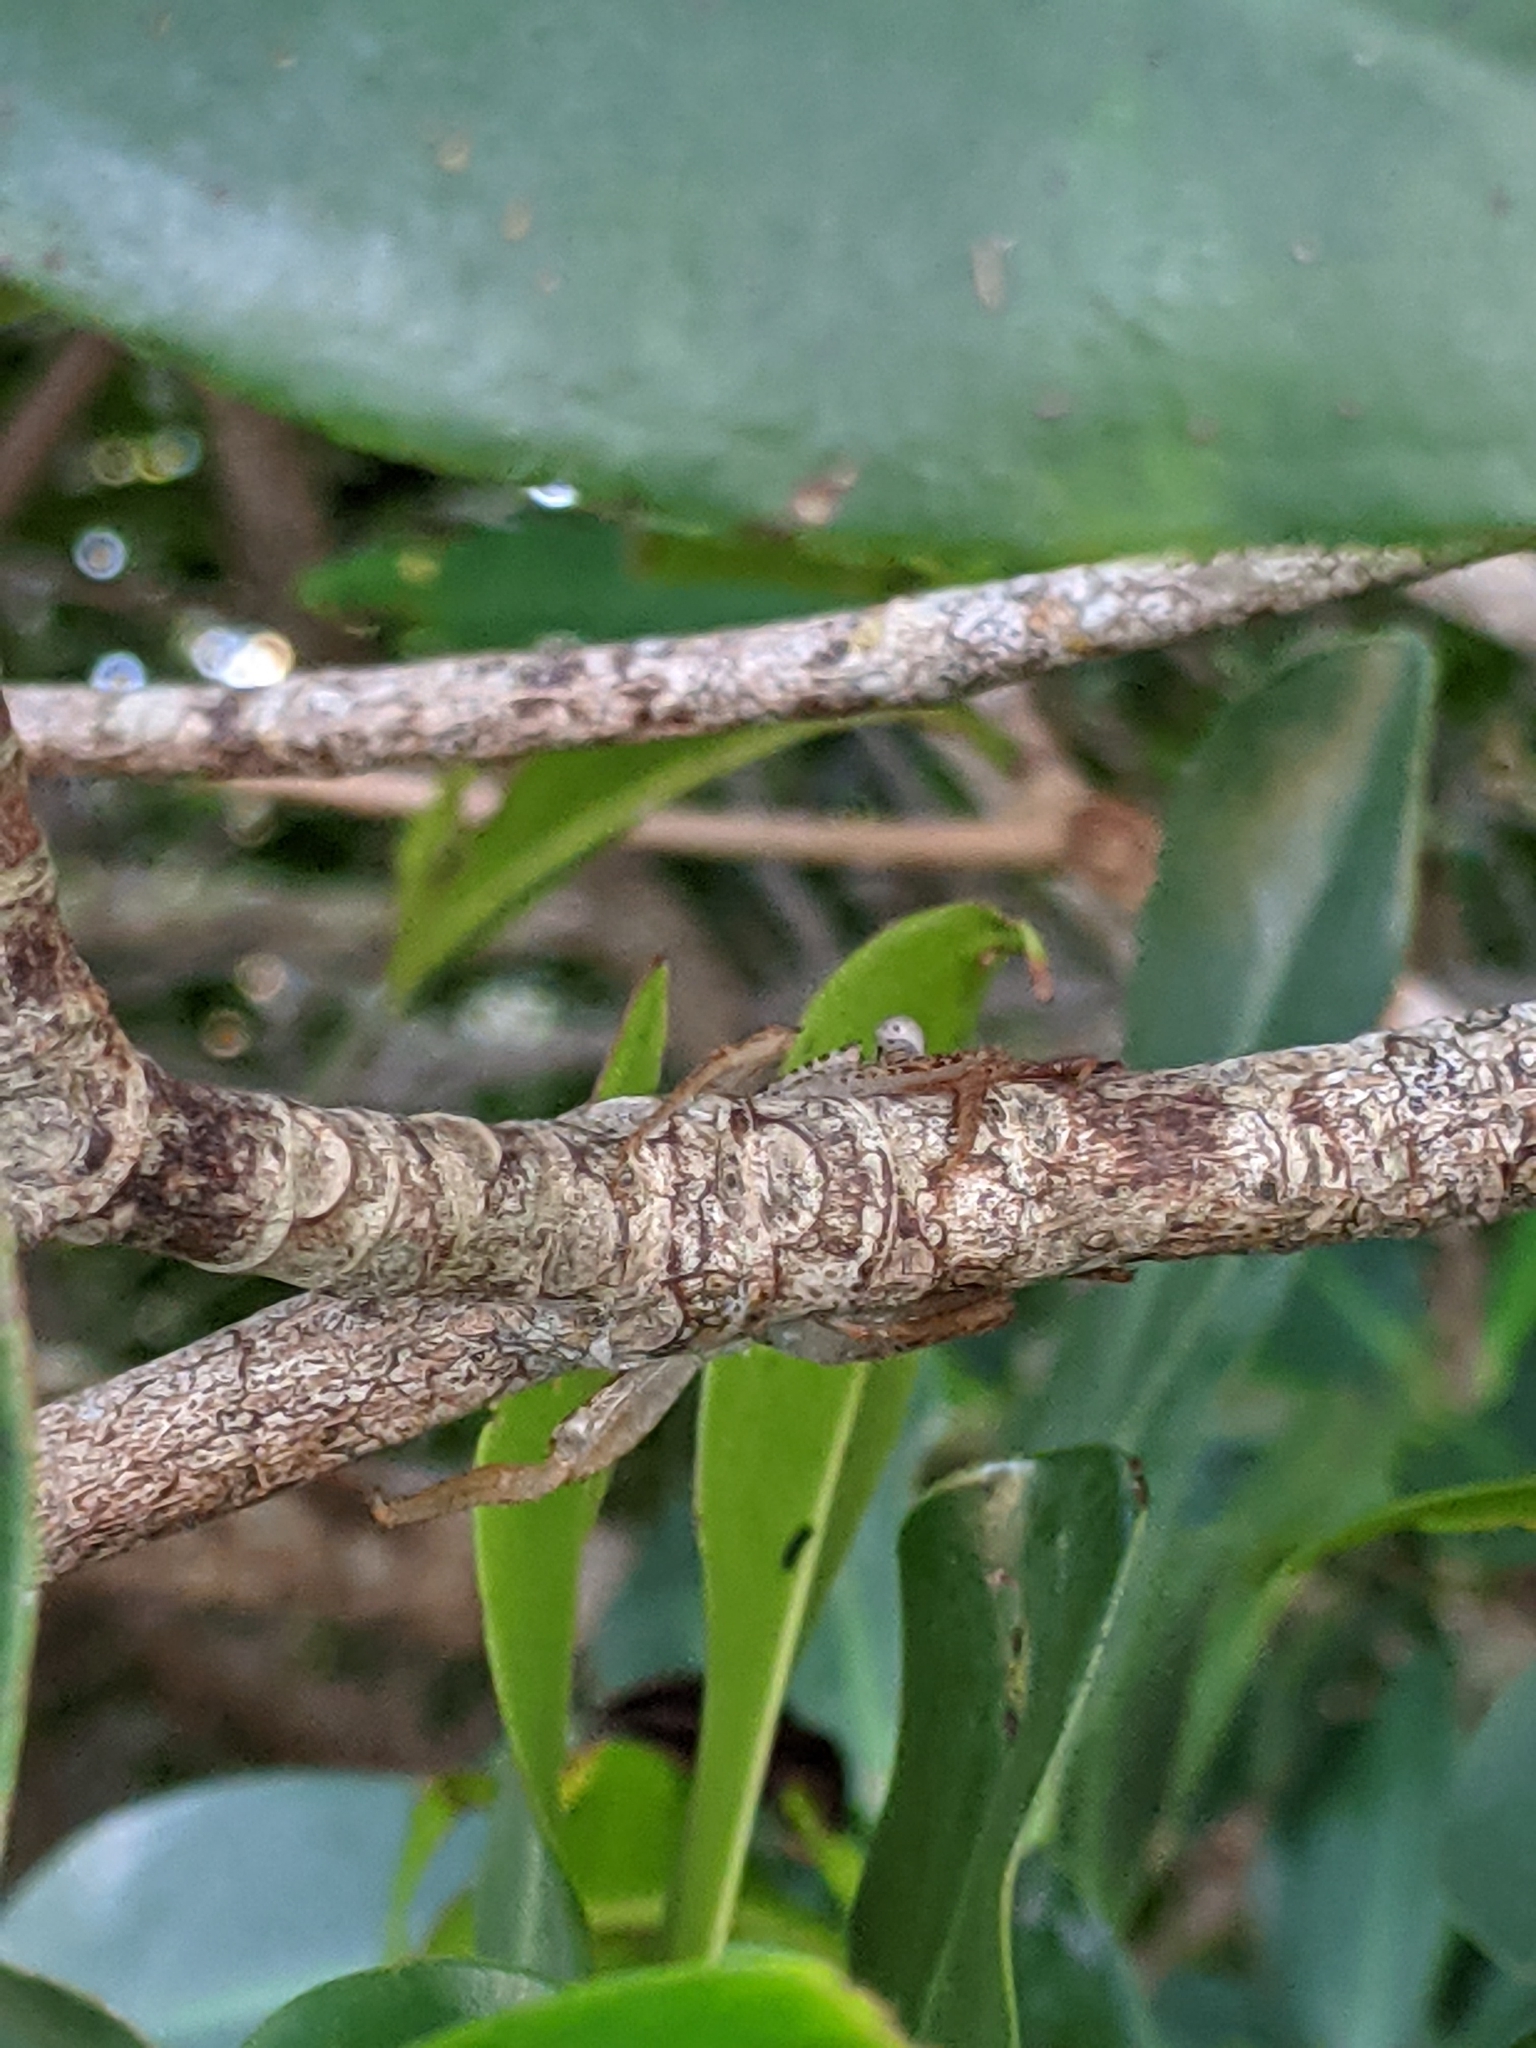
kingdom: Animalia
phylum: Arthropoda
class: Malacostraca
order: Decapoda
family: Sesarmidae
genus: Aratus
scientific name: Aratus pisonii
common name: Mangrove crab
